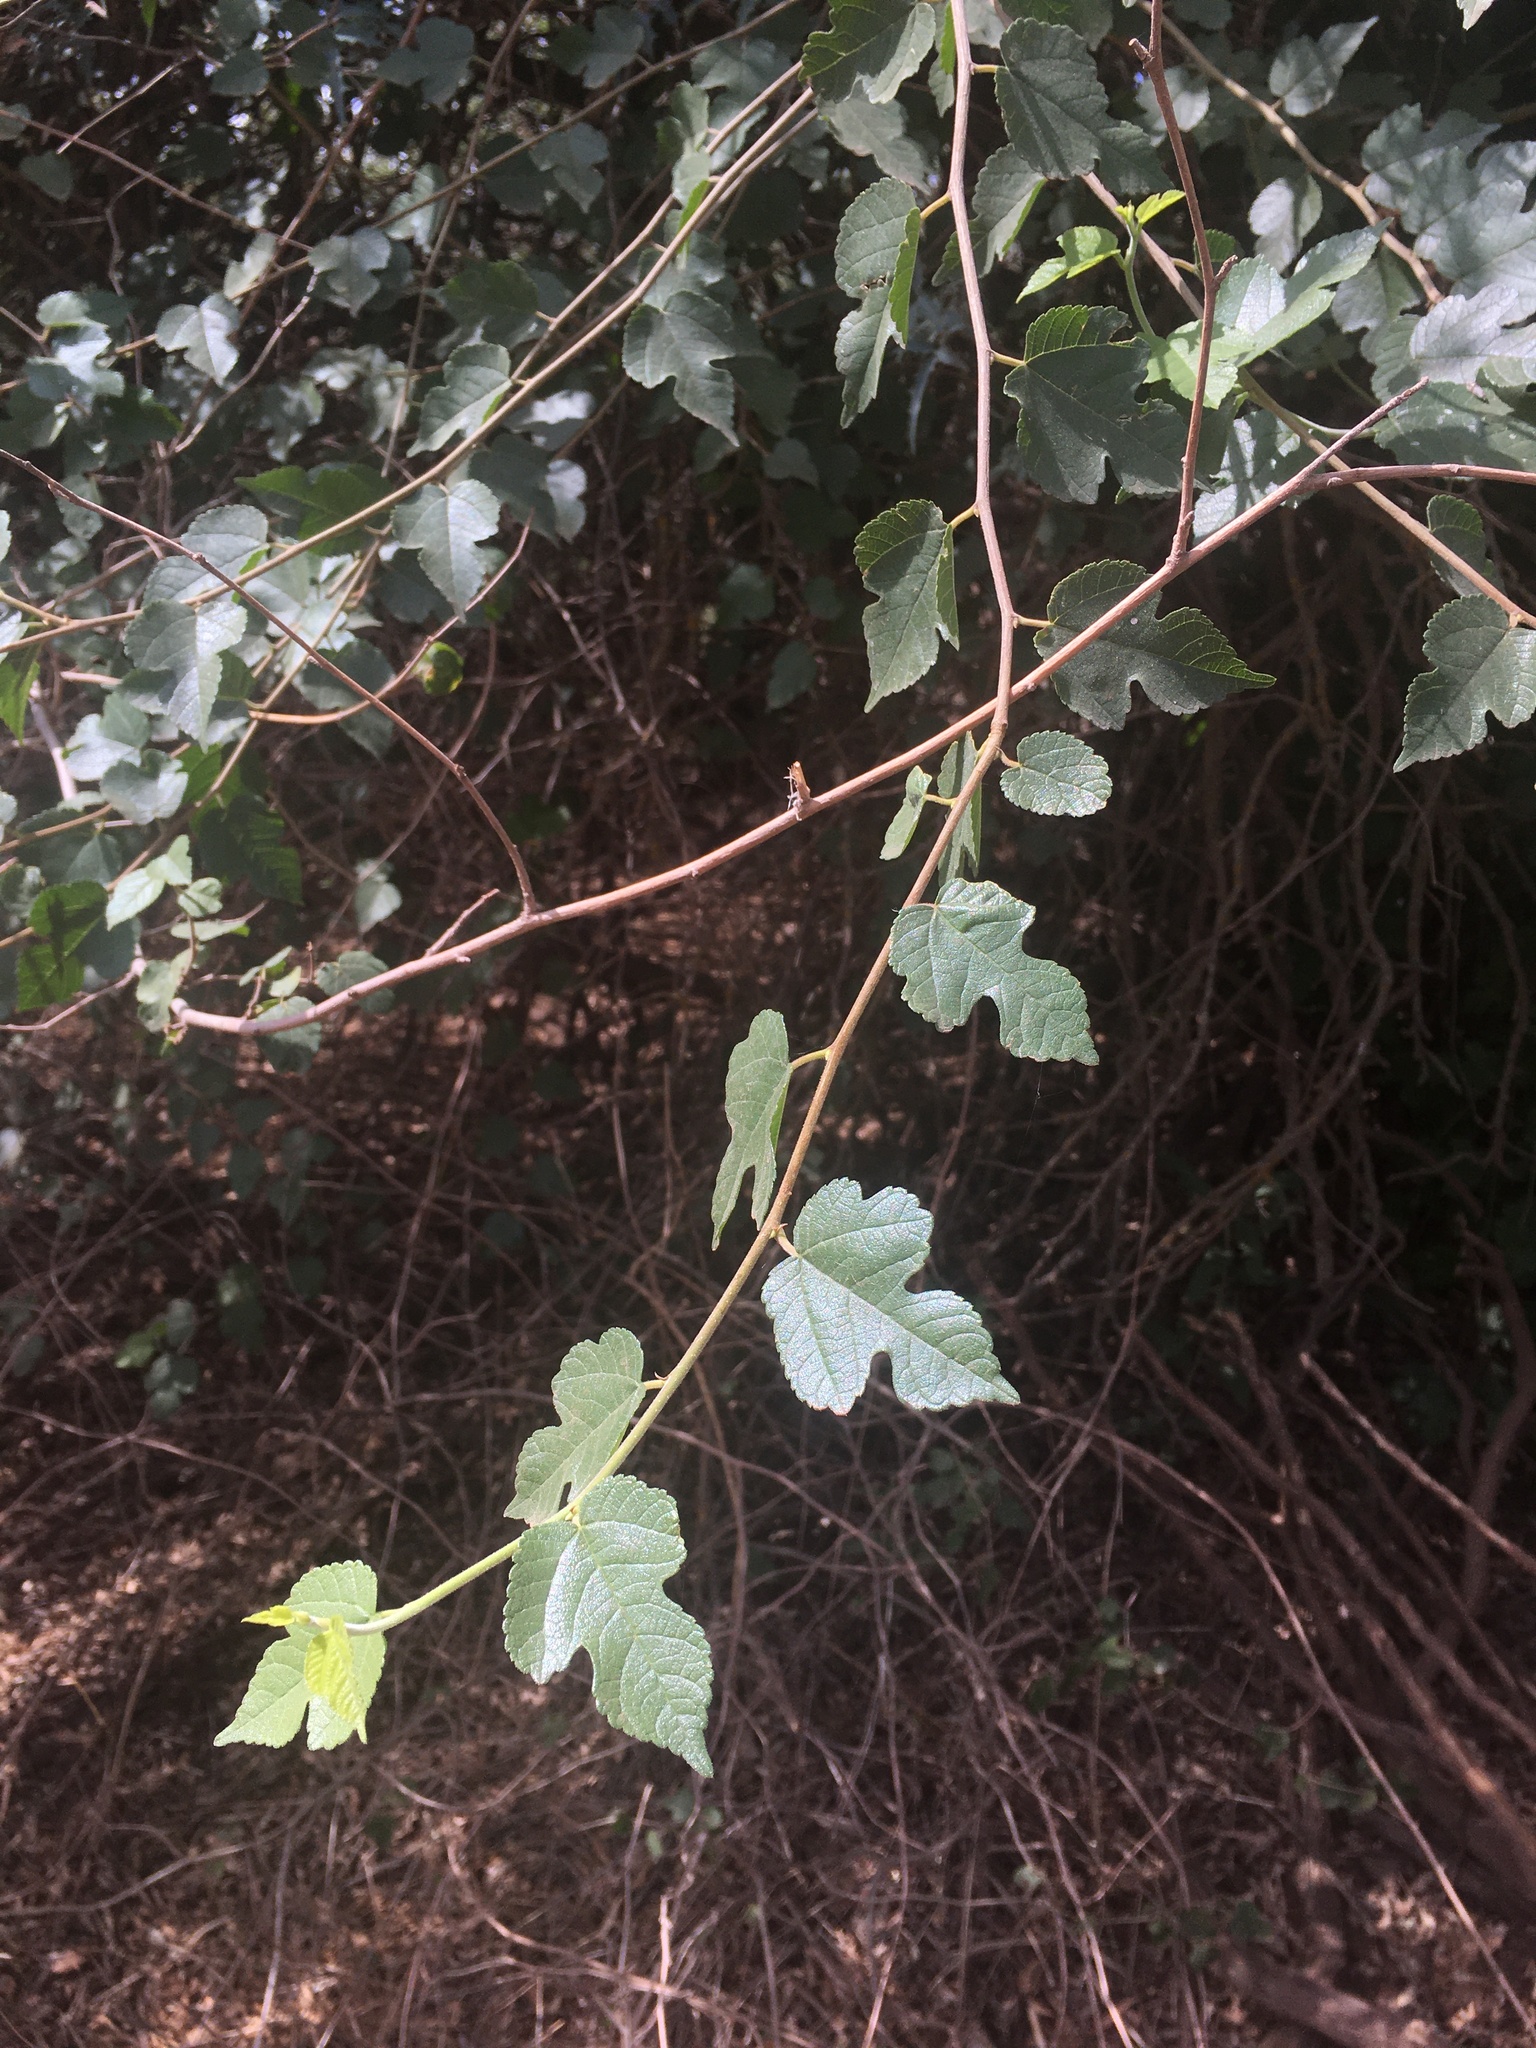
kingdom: Plantae
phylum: Tracheophyta
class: Magnoliopsida
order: Rosales
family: Moraceae
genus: Morus
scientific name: Morus microphylla
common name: Mexican mulberry
